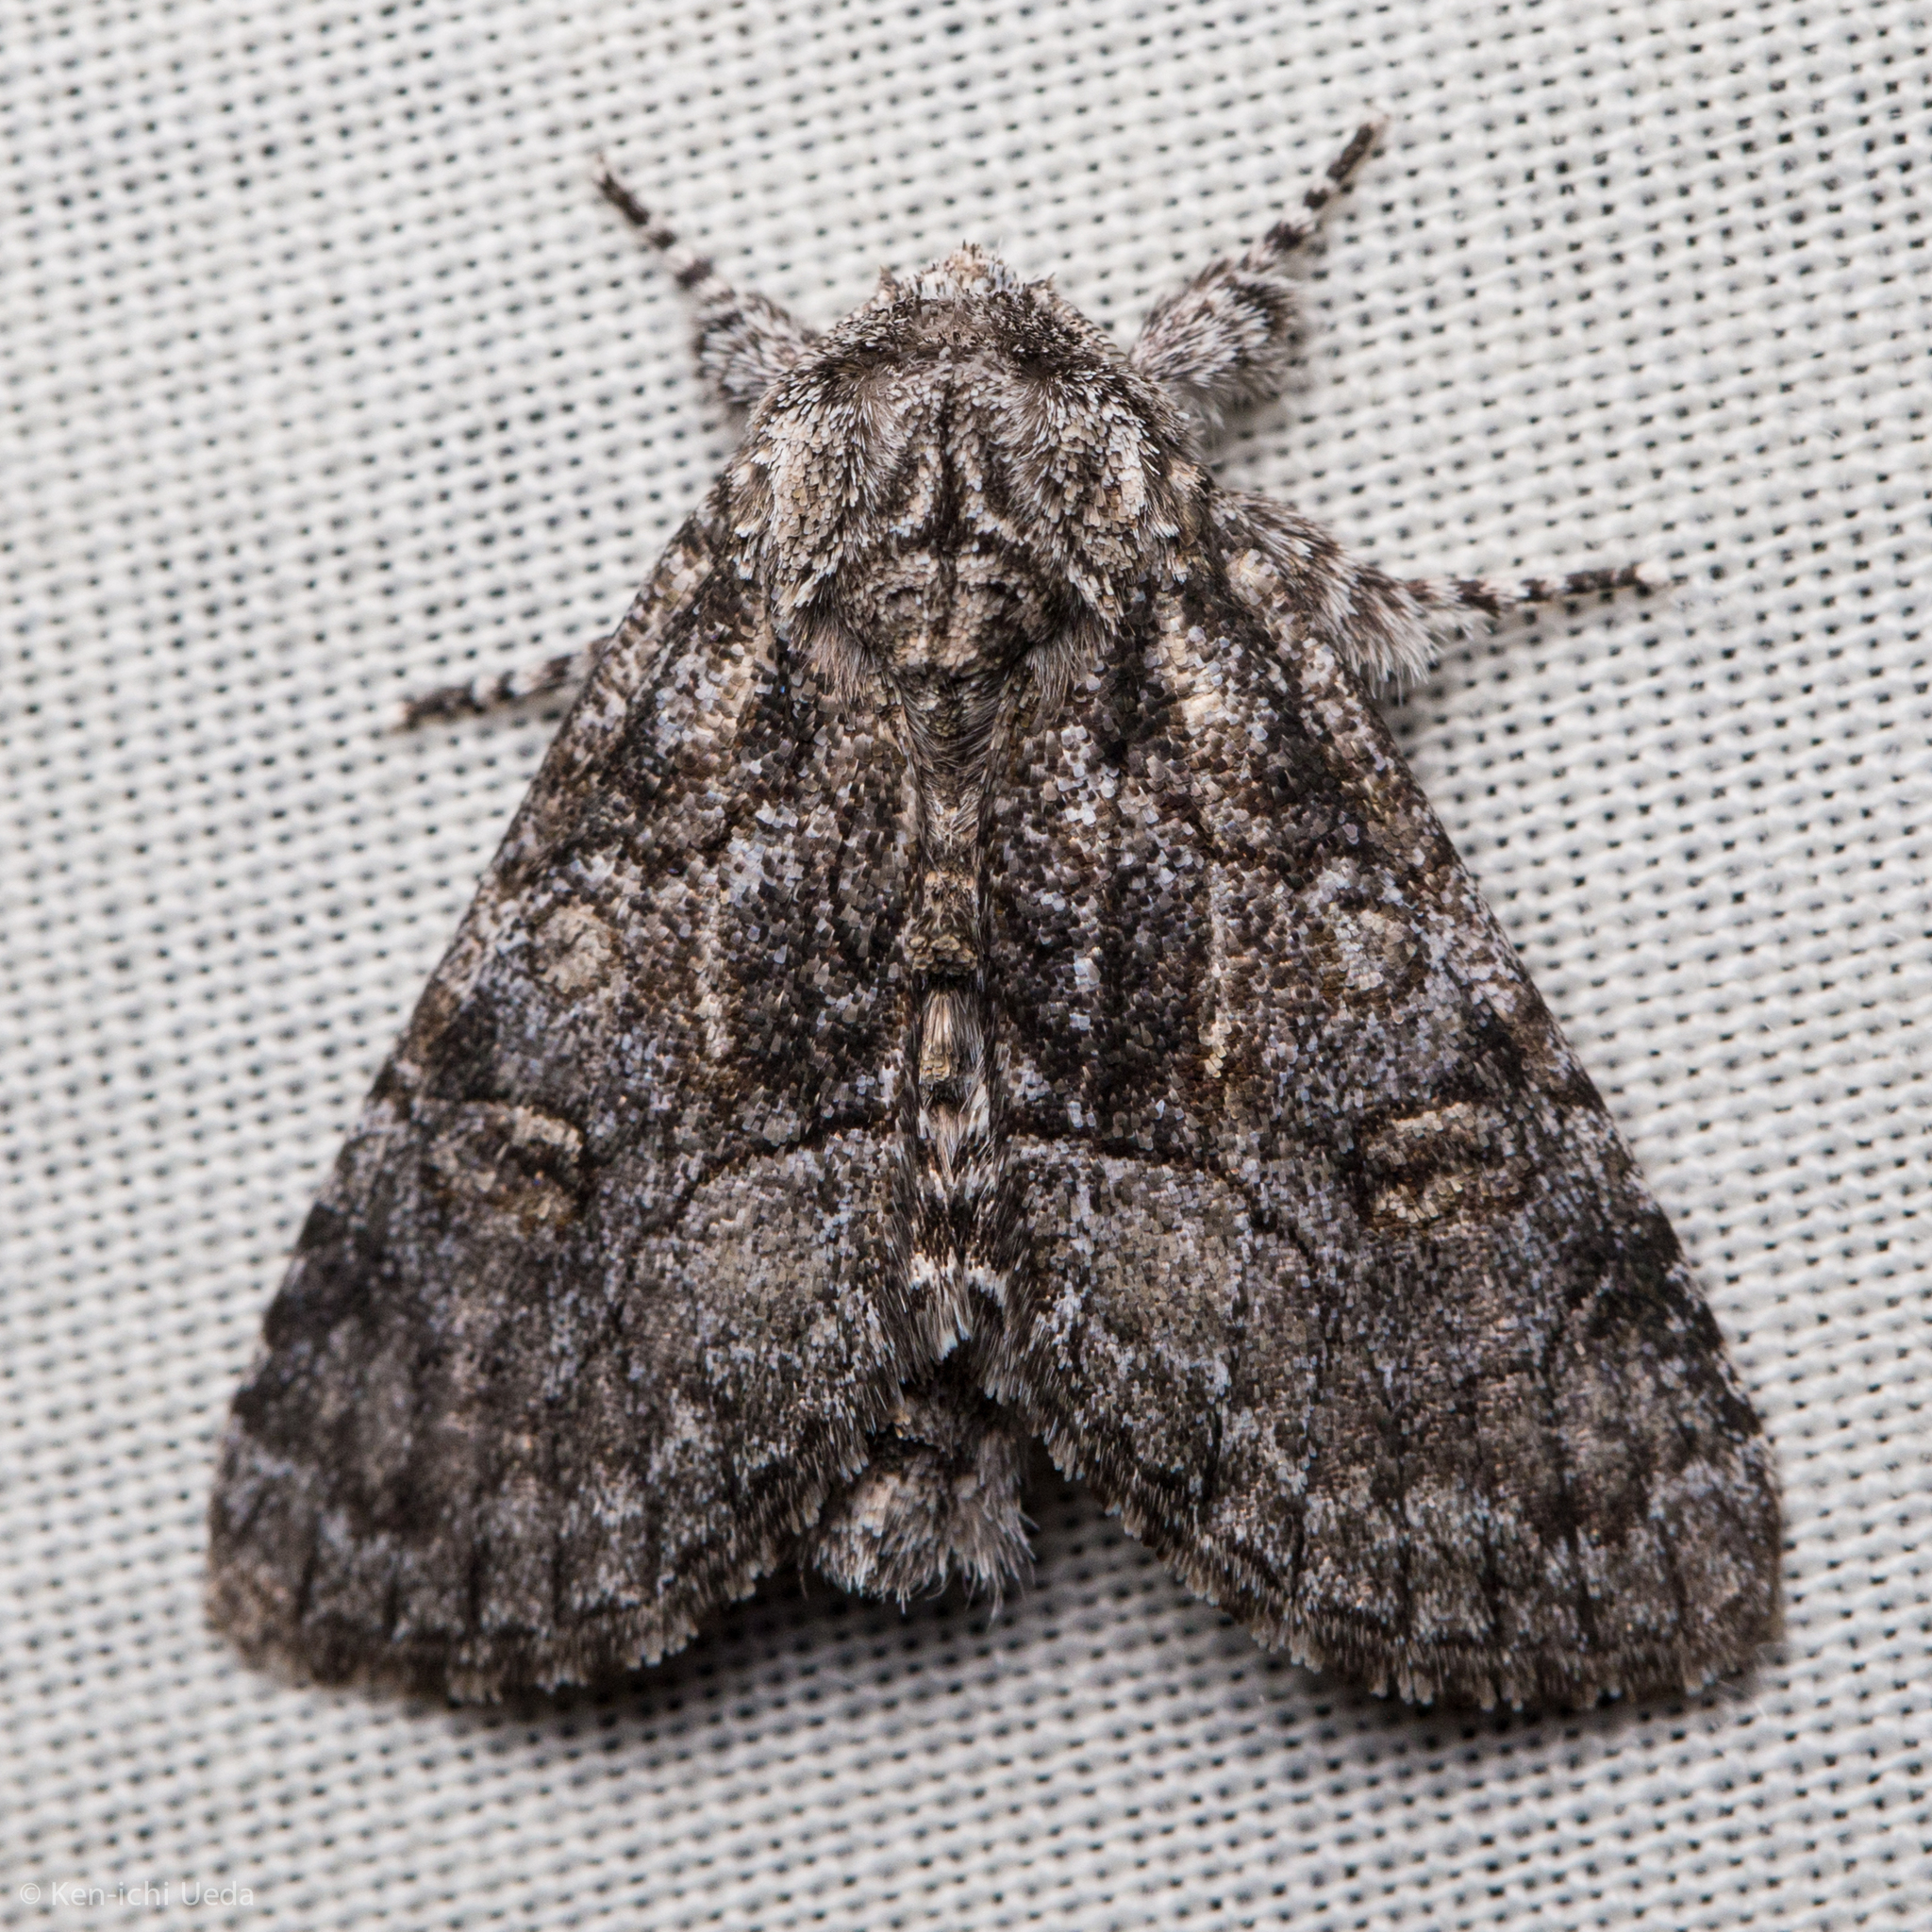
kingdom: Animalia
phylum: Arthropoda
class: Insecta
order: Lepidoptera
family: Noctuidae
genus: Raphia
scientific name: Raphia frater
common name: Brother
